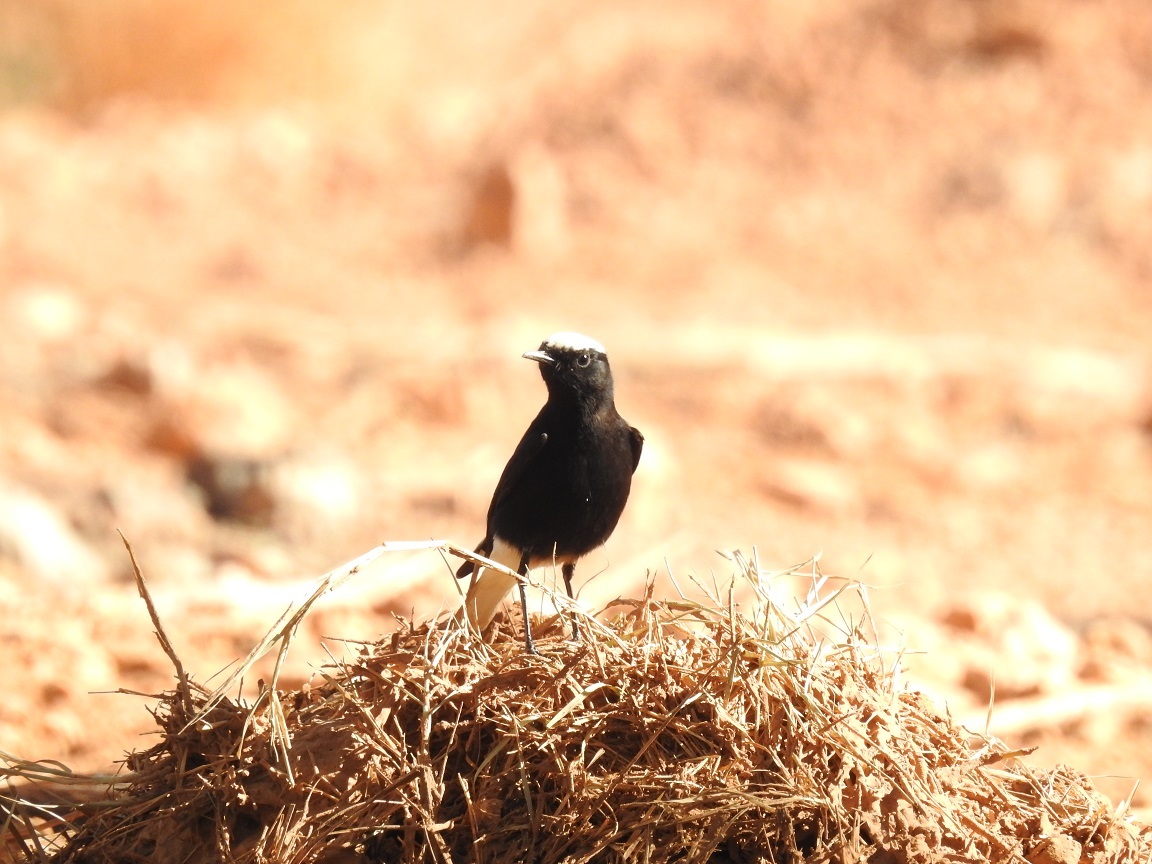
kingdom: Animalia
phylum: Chordata
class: Aves
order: Passeriformes
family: Muscicapidae
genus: Oenanthe
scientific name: Oenanthe leucopyga
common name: White-crowned wheatear
